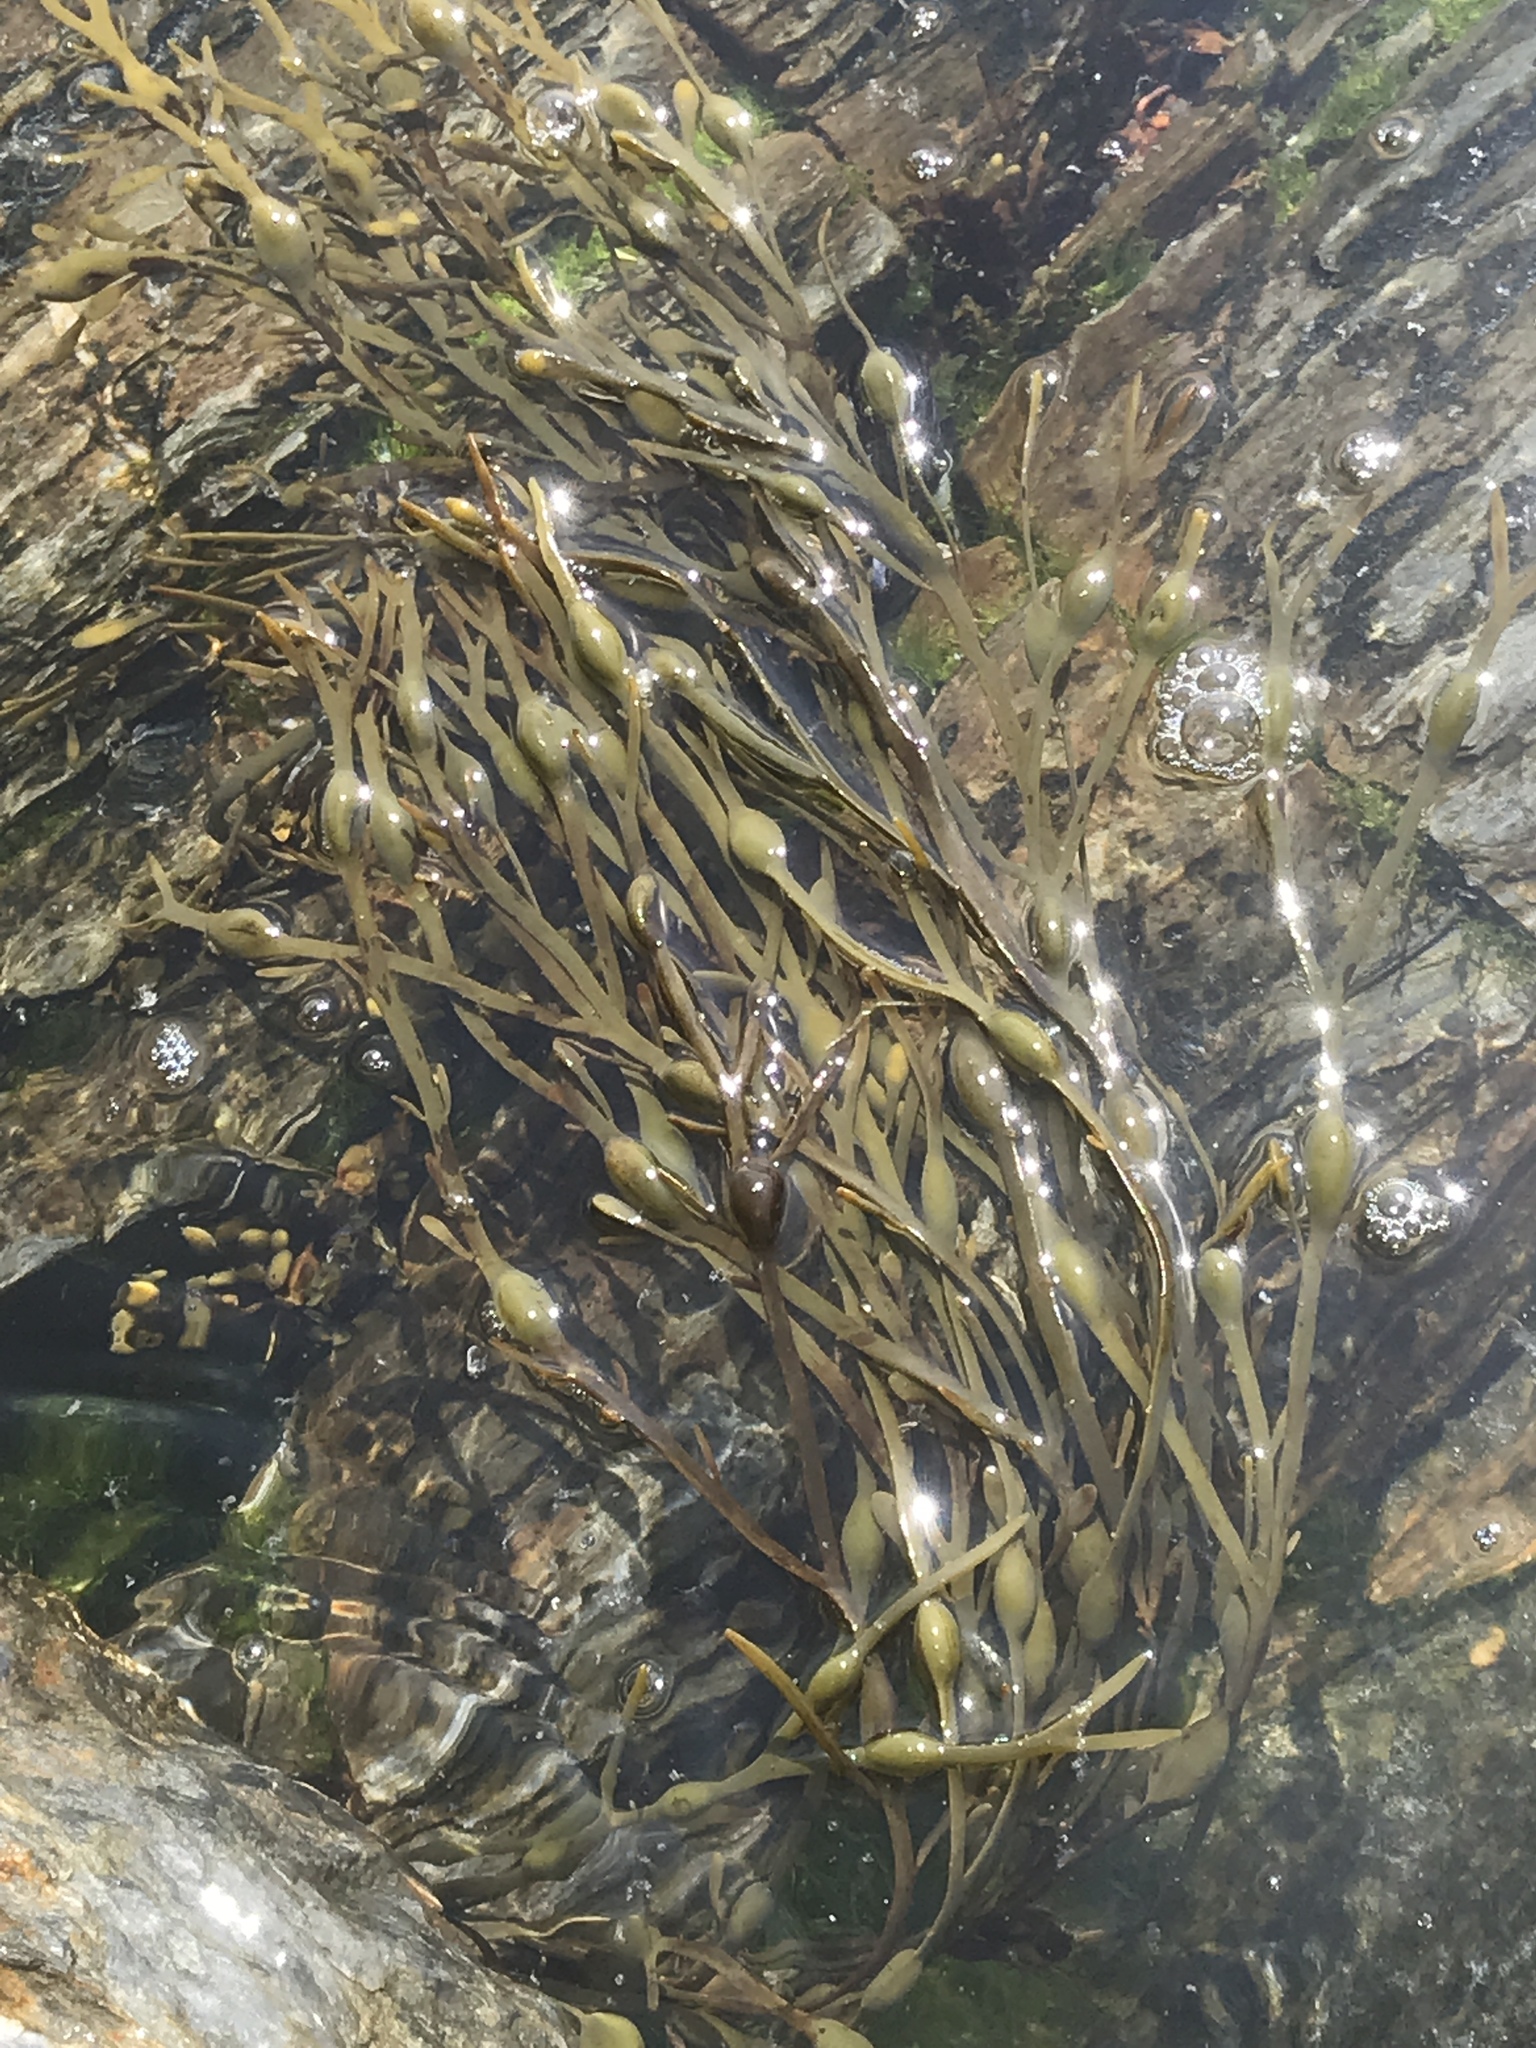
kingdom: Chromista
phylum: Ochrophyta
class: Phaeophyceae
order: Fucales
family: Fucaceae
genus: Ascophyllum
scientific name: Ascophyllum nodosum
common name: Knotted wrack
